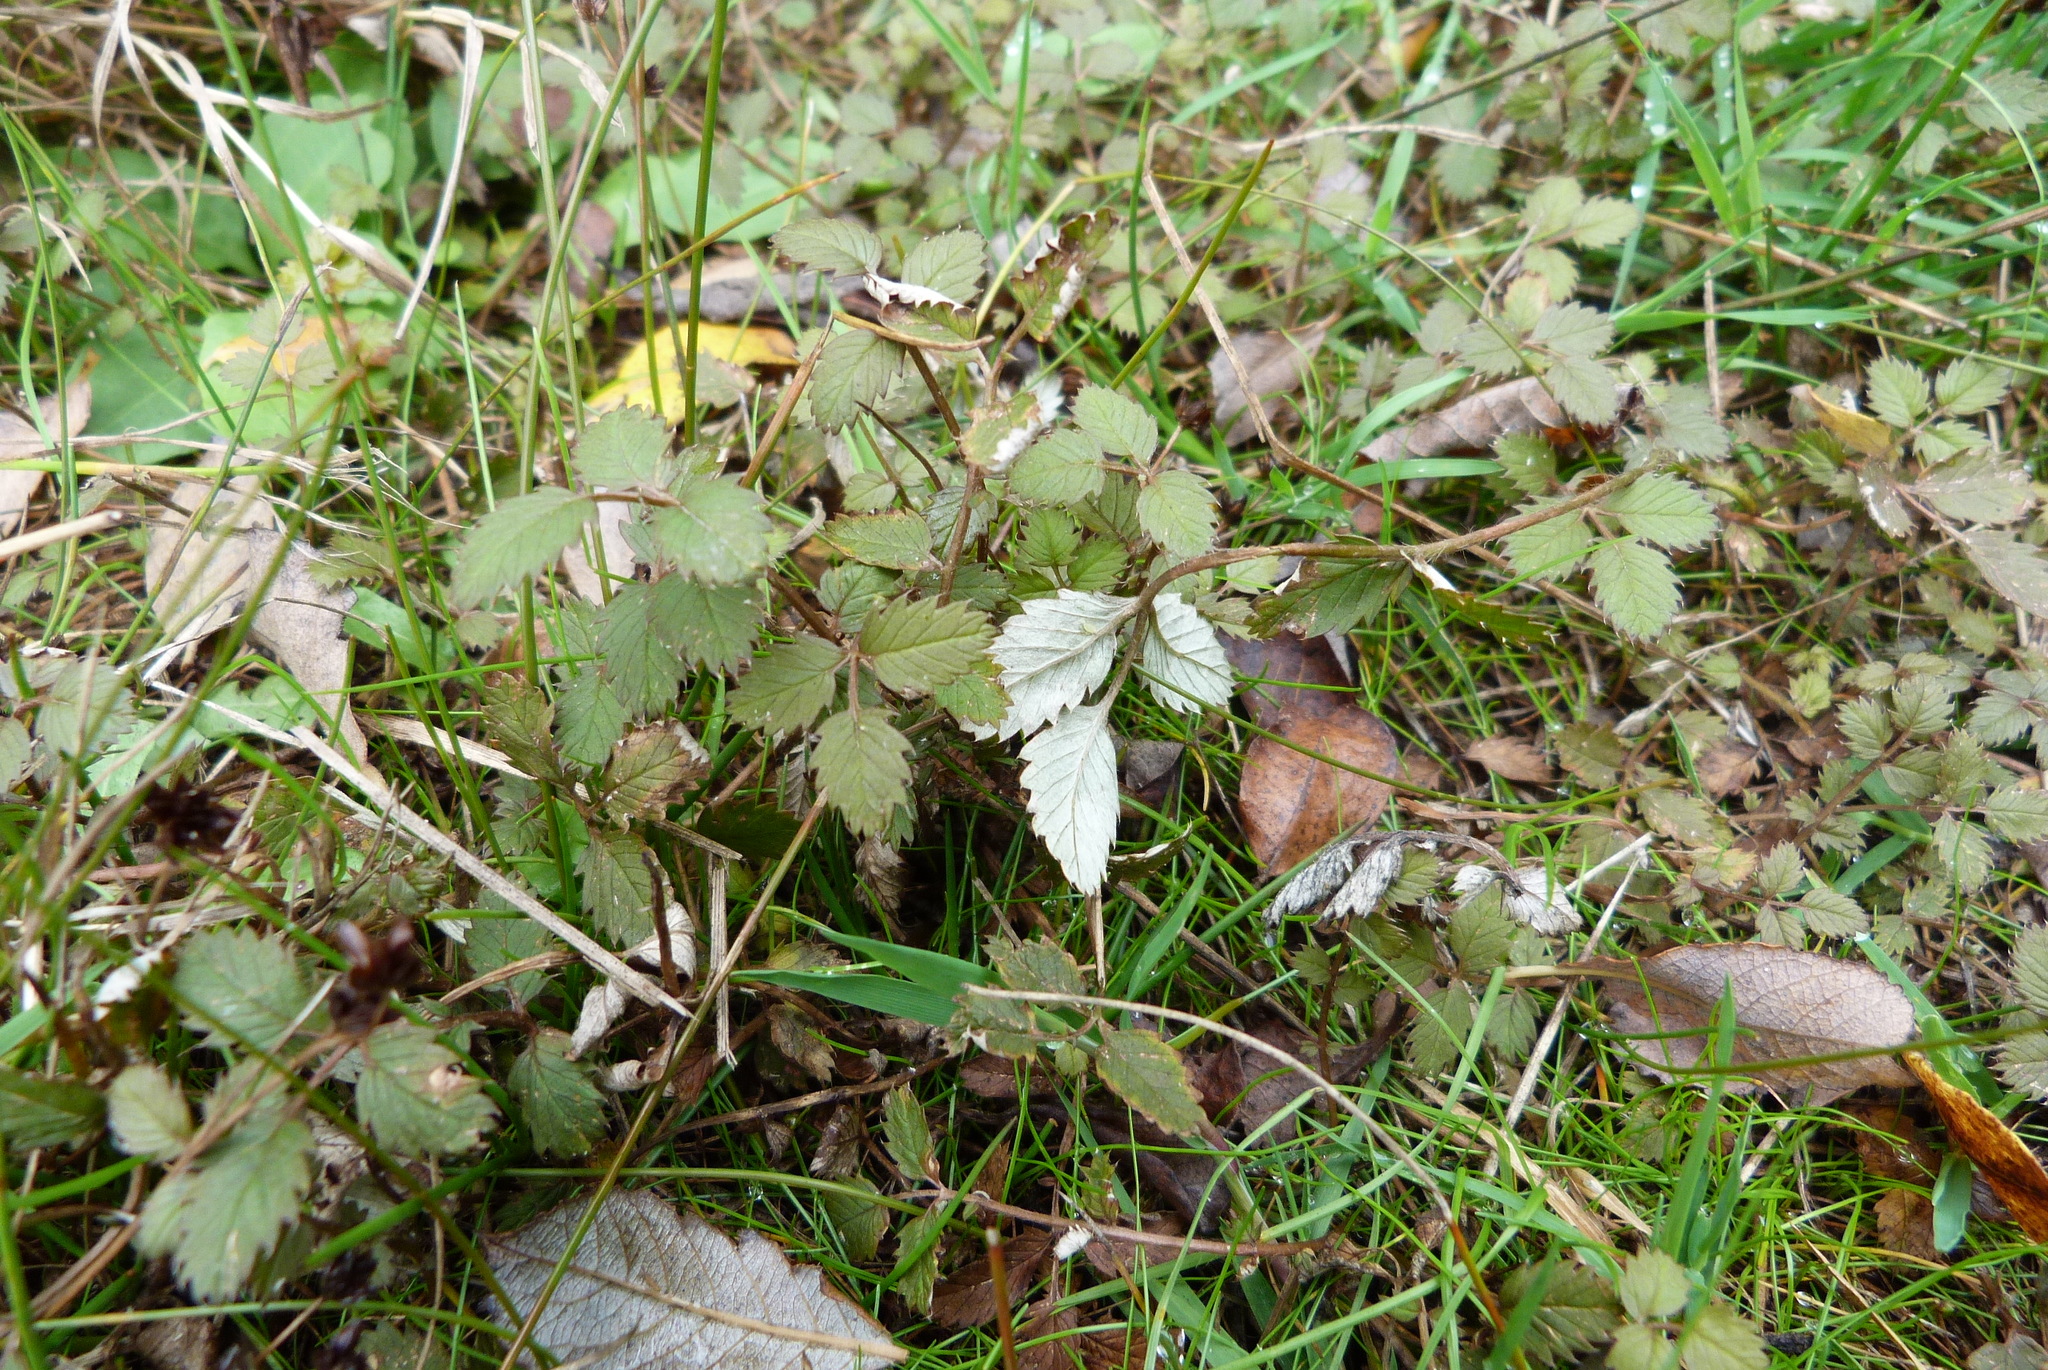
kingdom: Plantae
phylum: Tracheophyta
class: Magnoliopsida
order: Rosales
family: Rosaceae
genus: Argentina
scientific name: Argentina anserinoides
